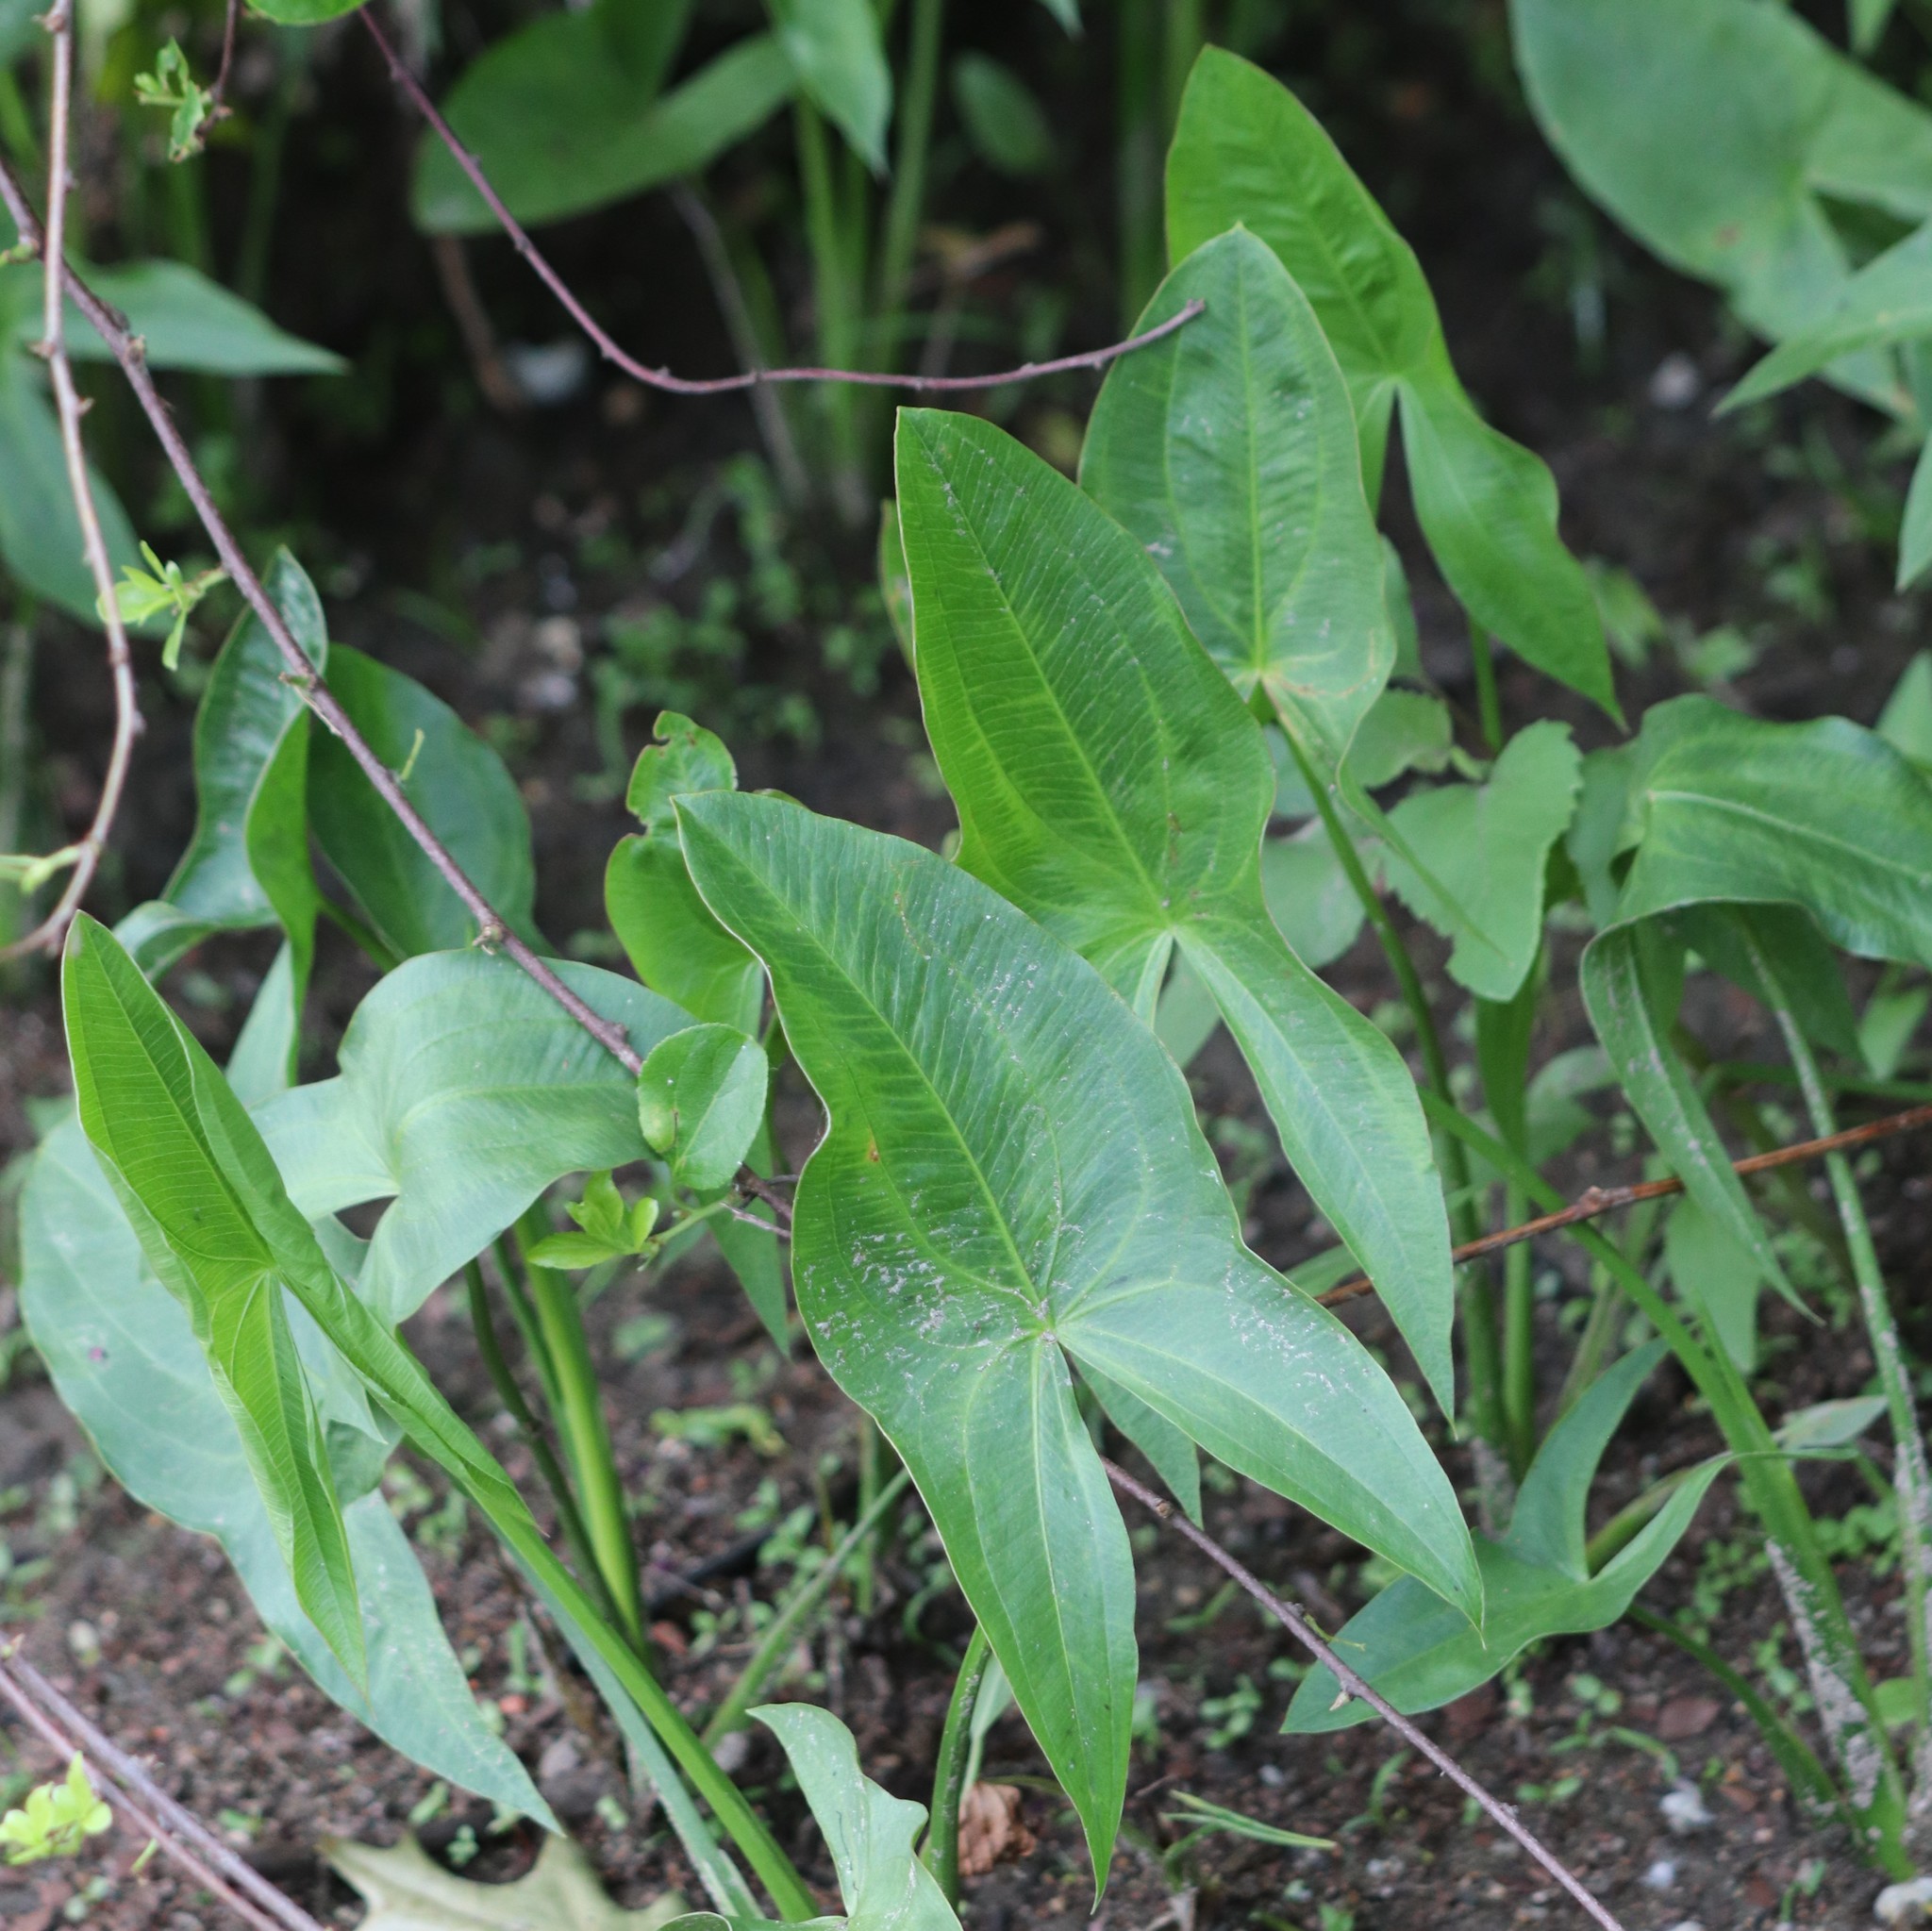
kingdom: Plantae
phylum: Tracheophyta
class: Liliopsida
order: Alismatales
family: Alismataceae
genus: Sagittaria
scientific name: Sagittaria latifolia
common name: Duck-potato
